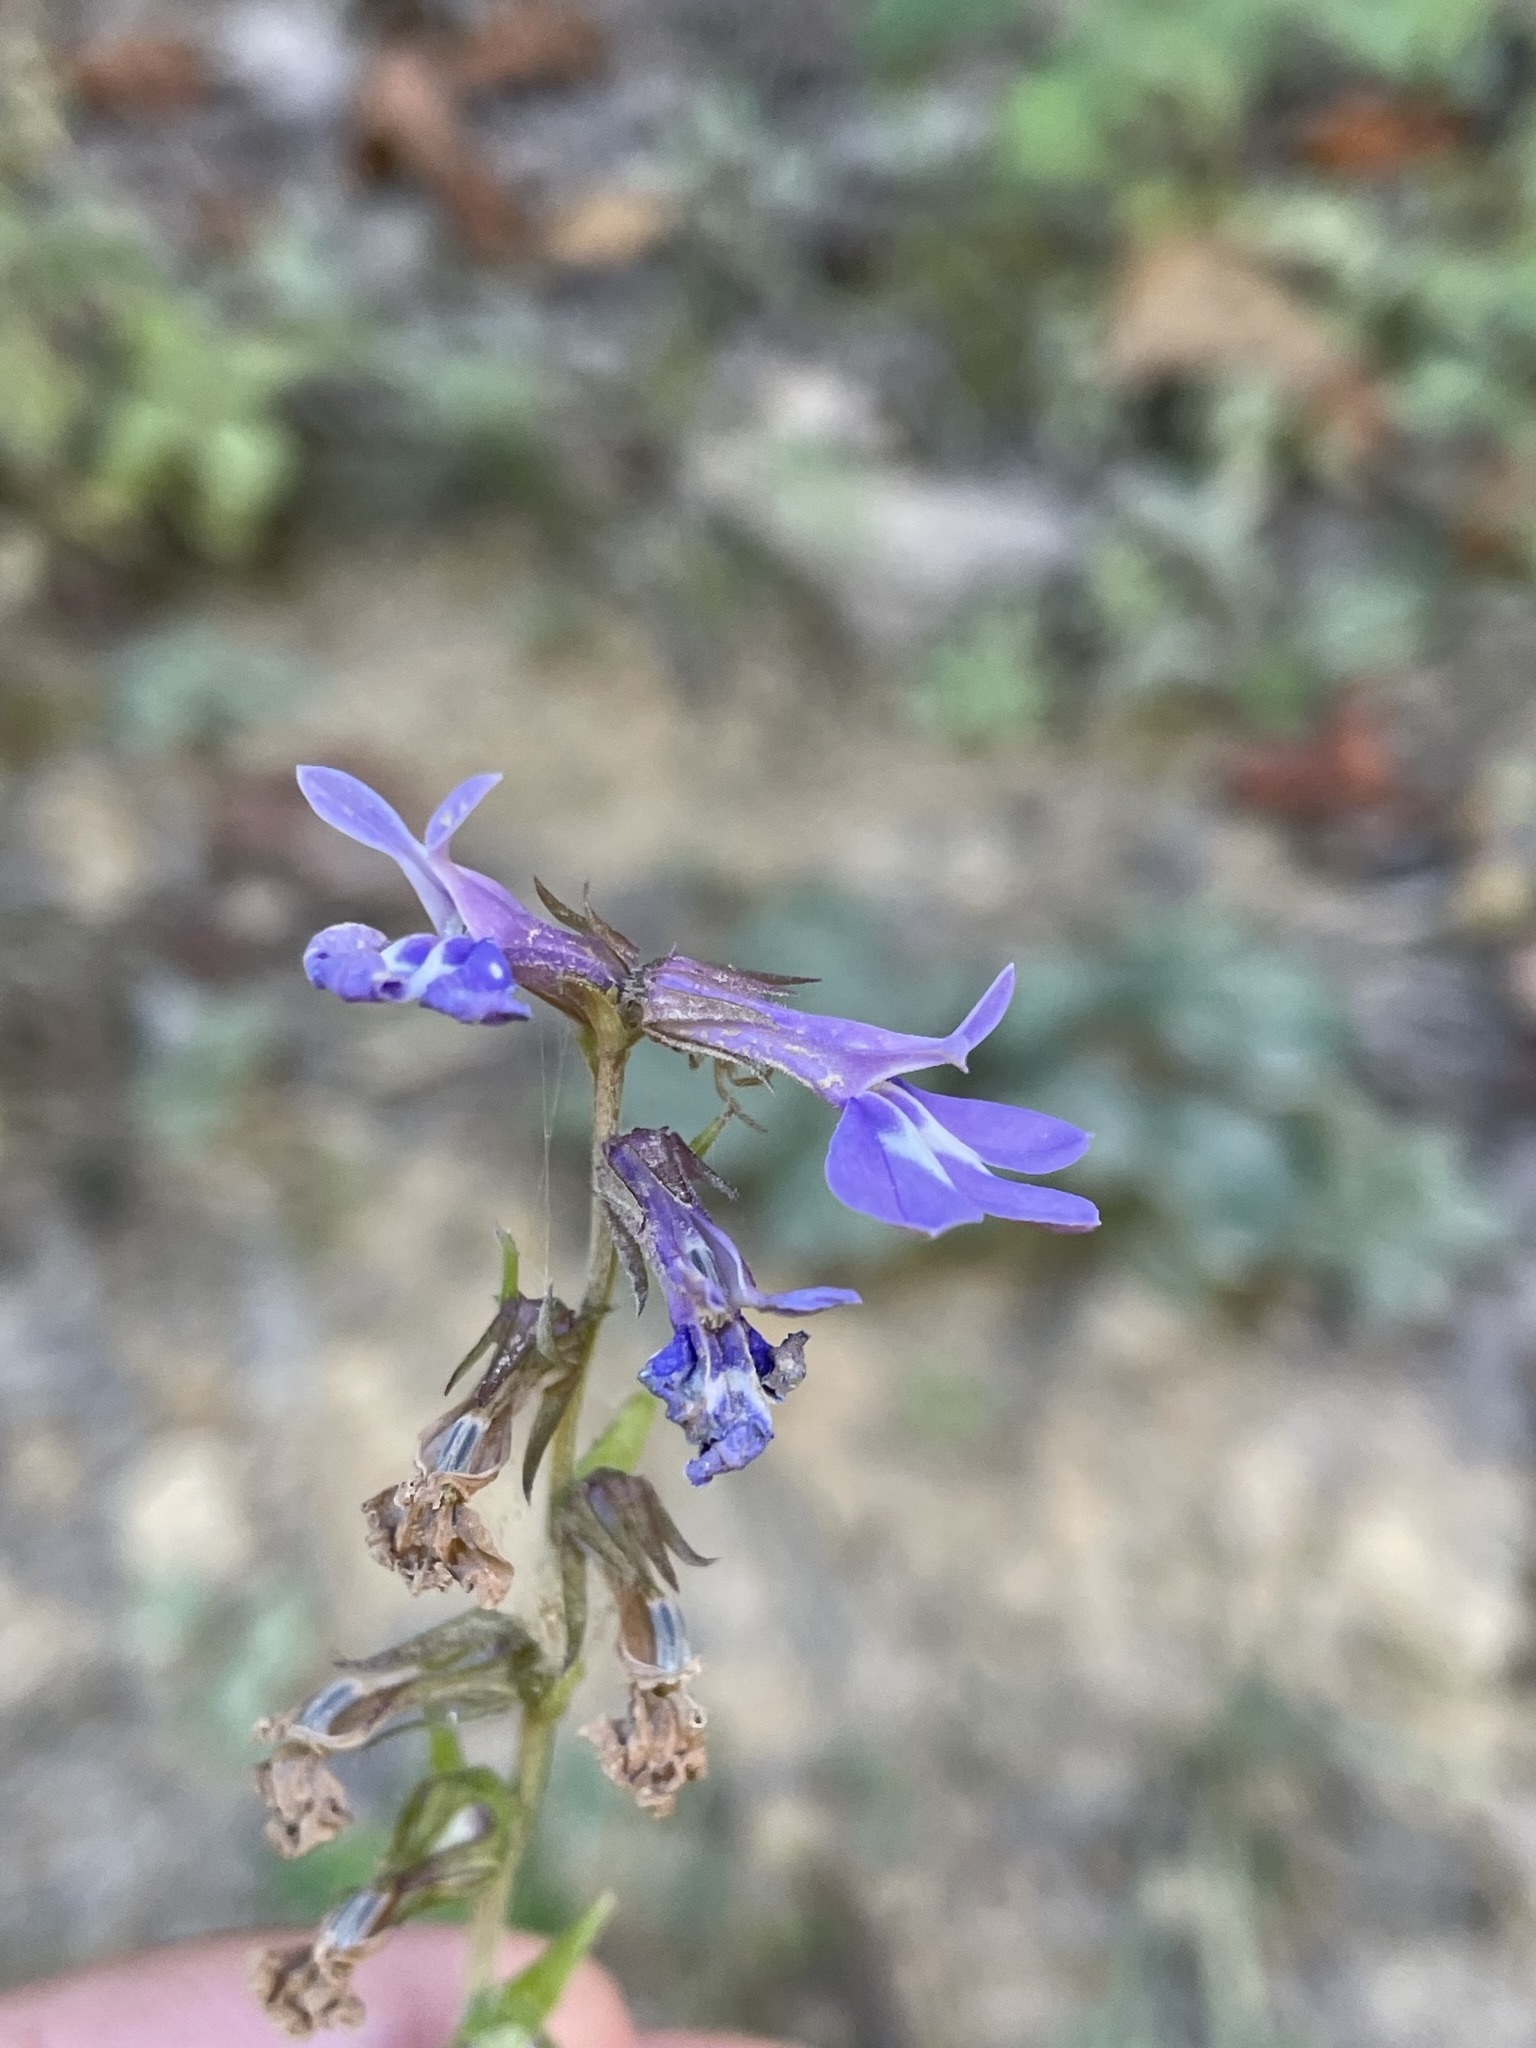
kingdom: Plantae
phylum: Tracheophyta
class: Magnoliopsida
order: Asterales
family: Campanulaceae
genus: Lobelia
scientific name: Lobelia puberula
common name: Purple dewdrop
